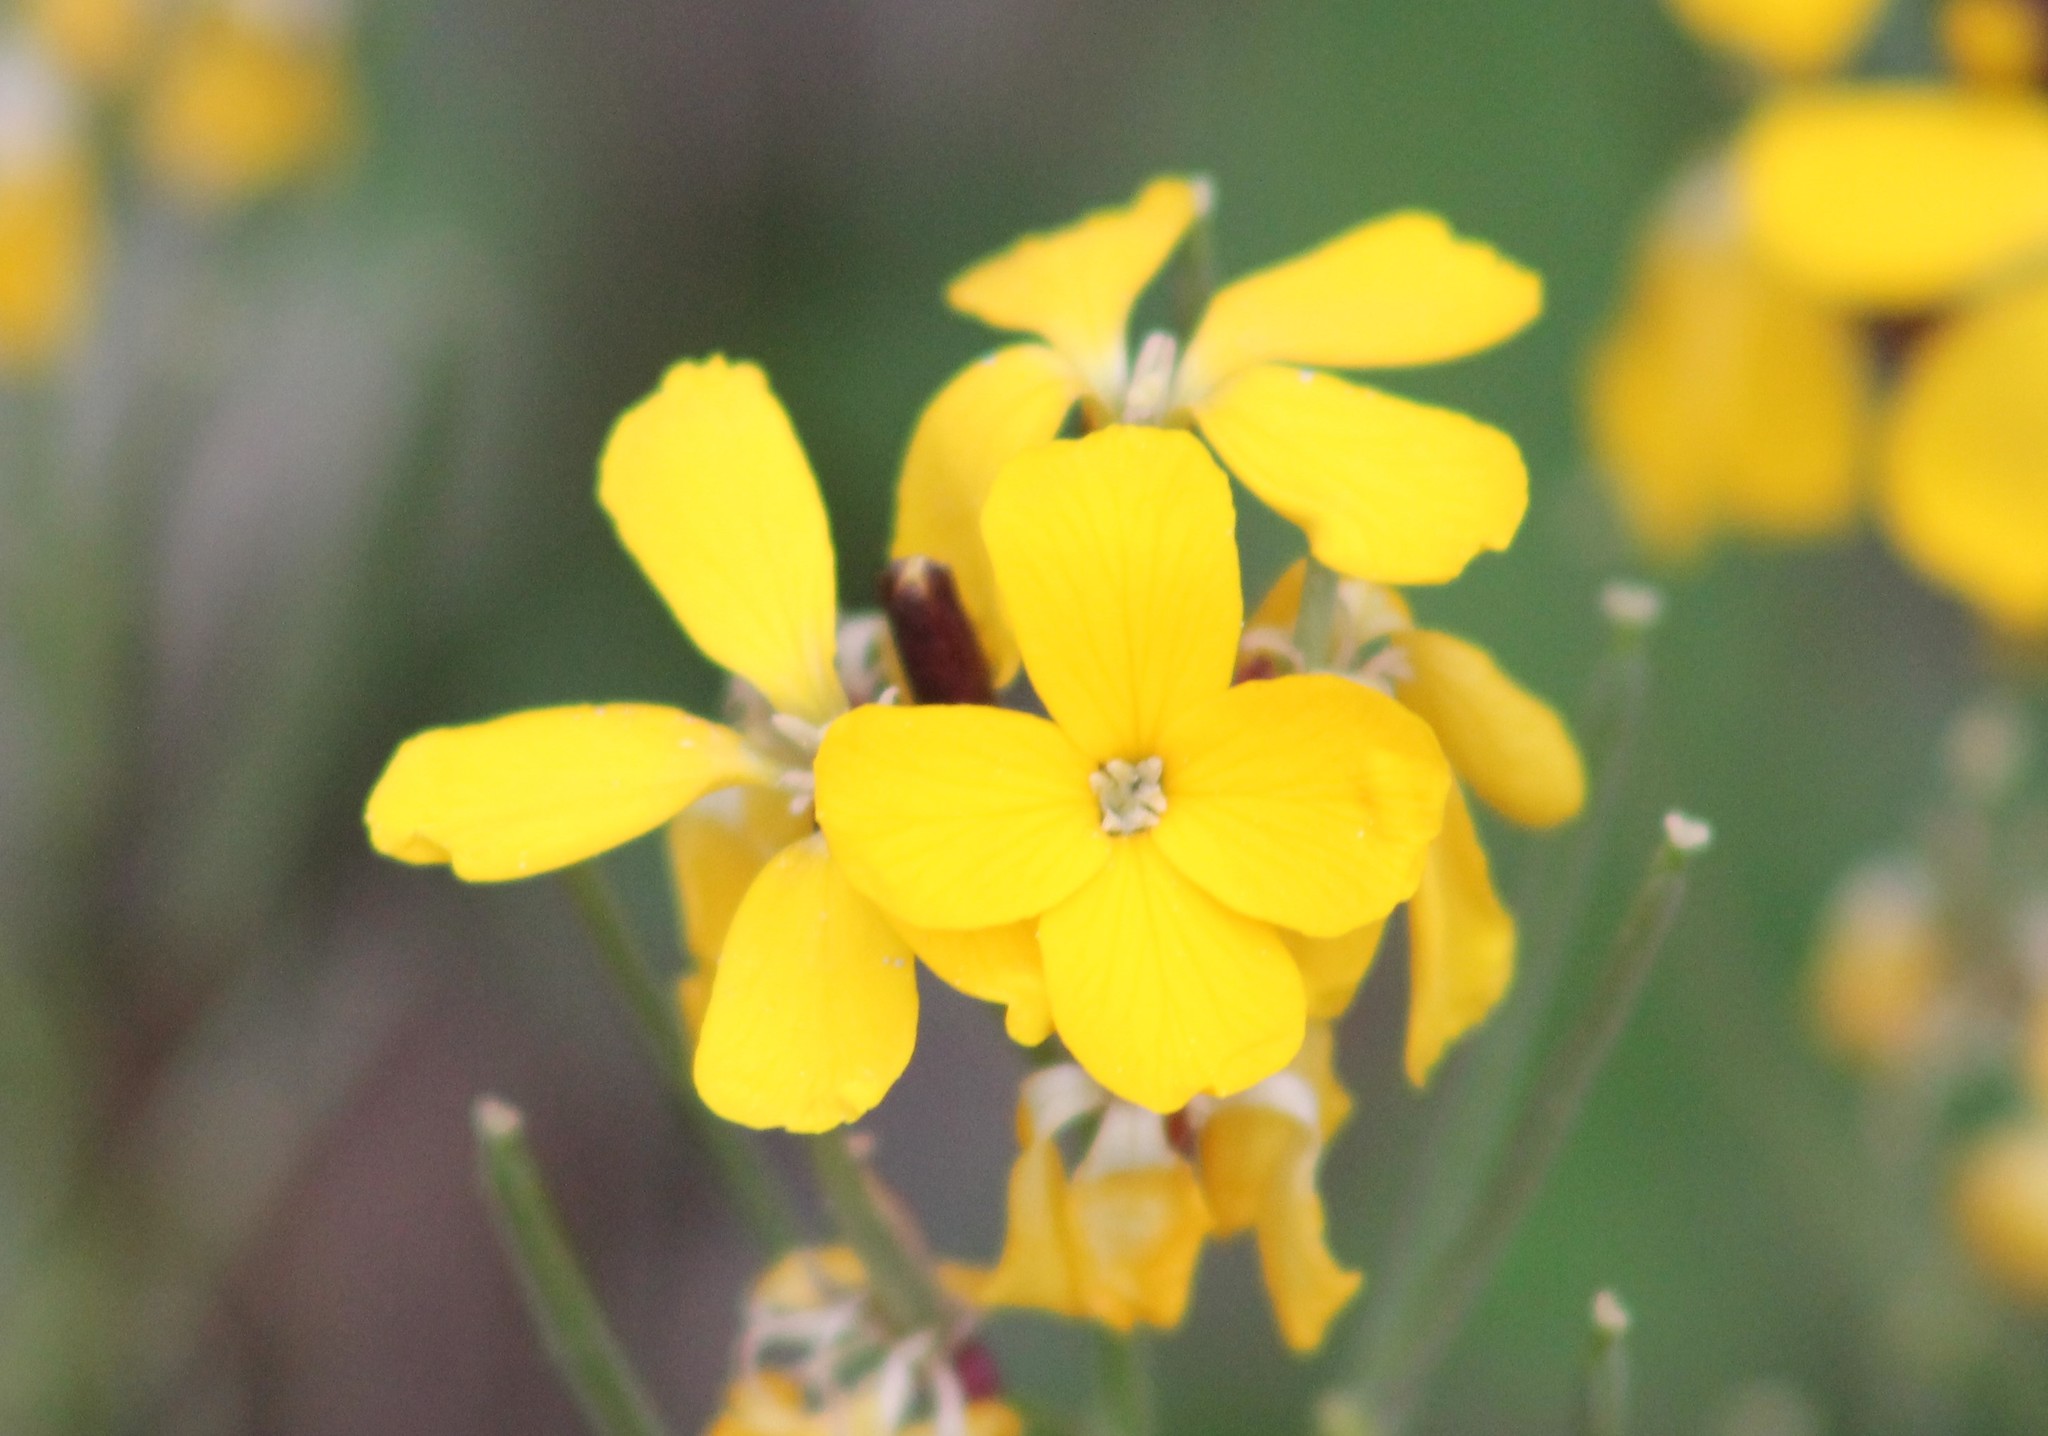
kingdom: Plantae
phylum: Tracheophyta
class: Magnoliopsida
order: Brassicales
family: Brassicaceae
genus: Erysimum
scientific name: Erysimum cheiri
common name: Wallflower
